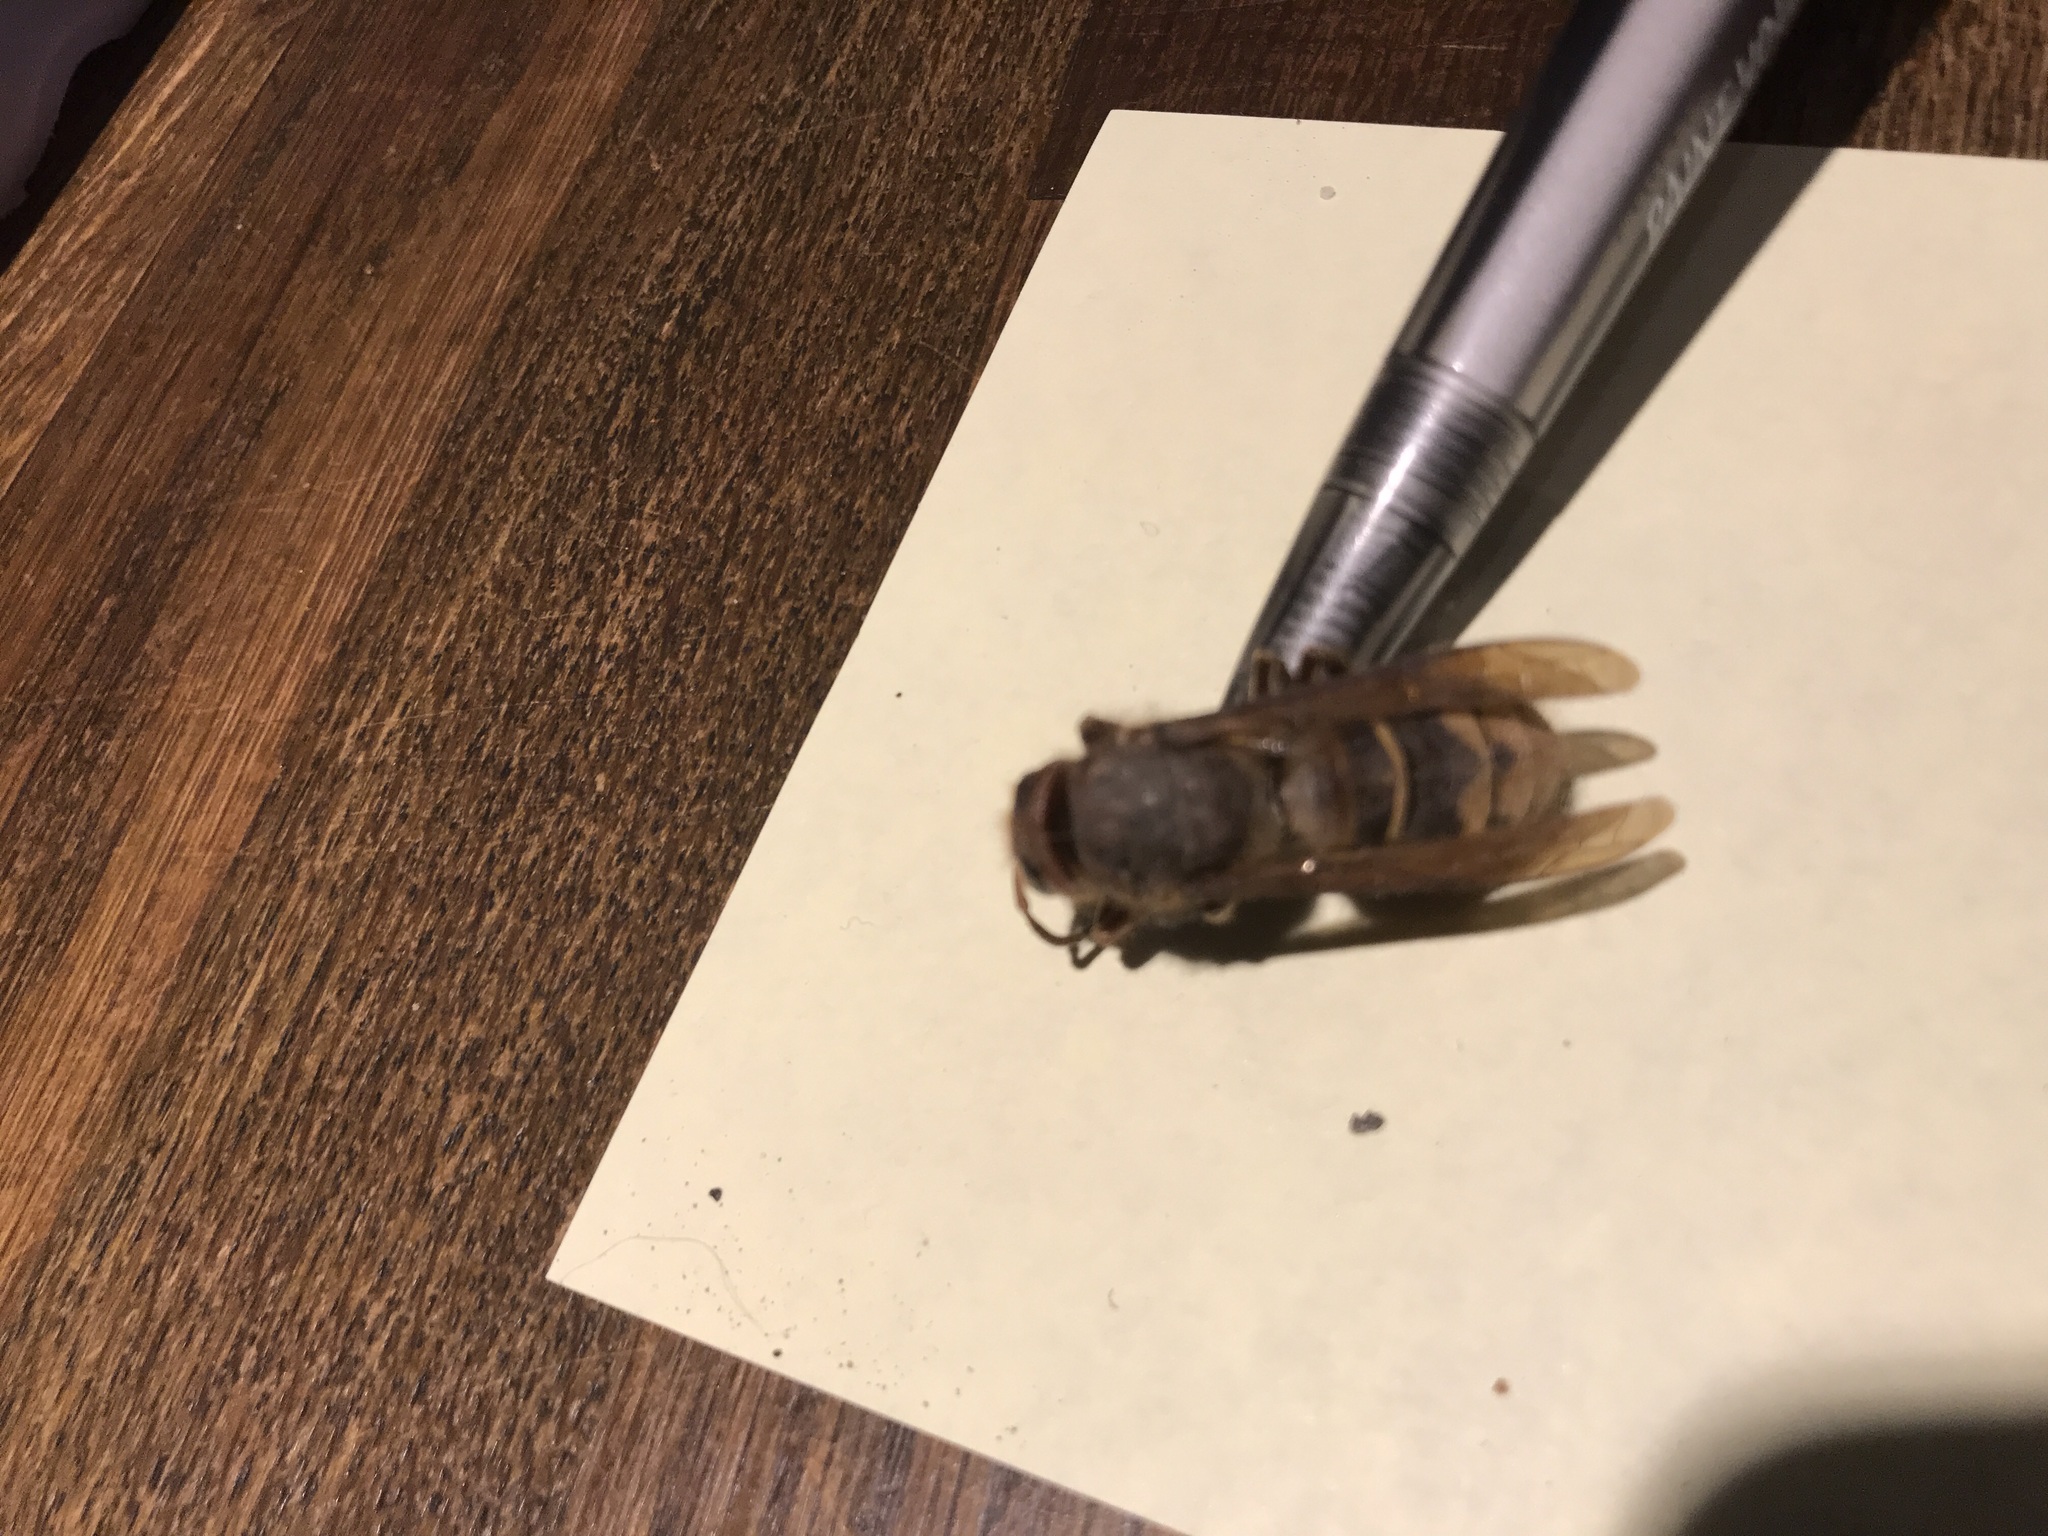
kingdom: Animalia
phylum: Arthropoda
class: Insecta
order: Hymenoptera
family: Vespidae
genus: Vespa
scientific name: Vespa crabro
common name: Hornet
